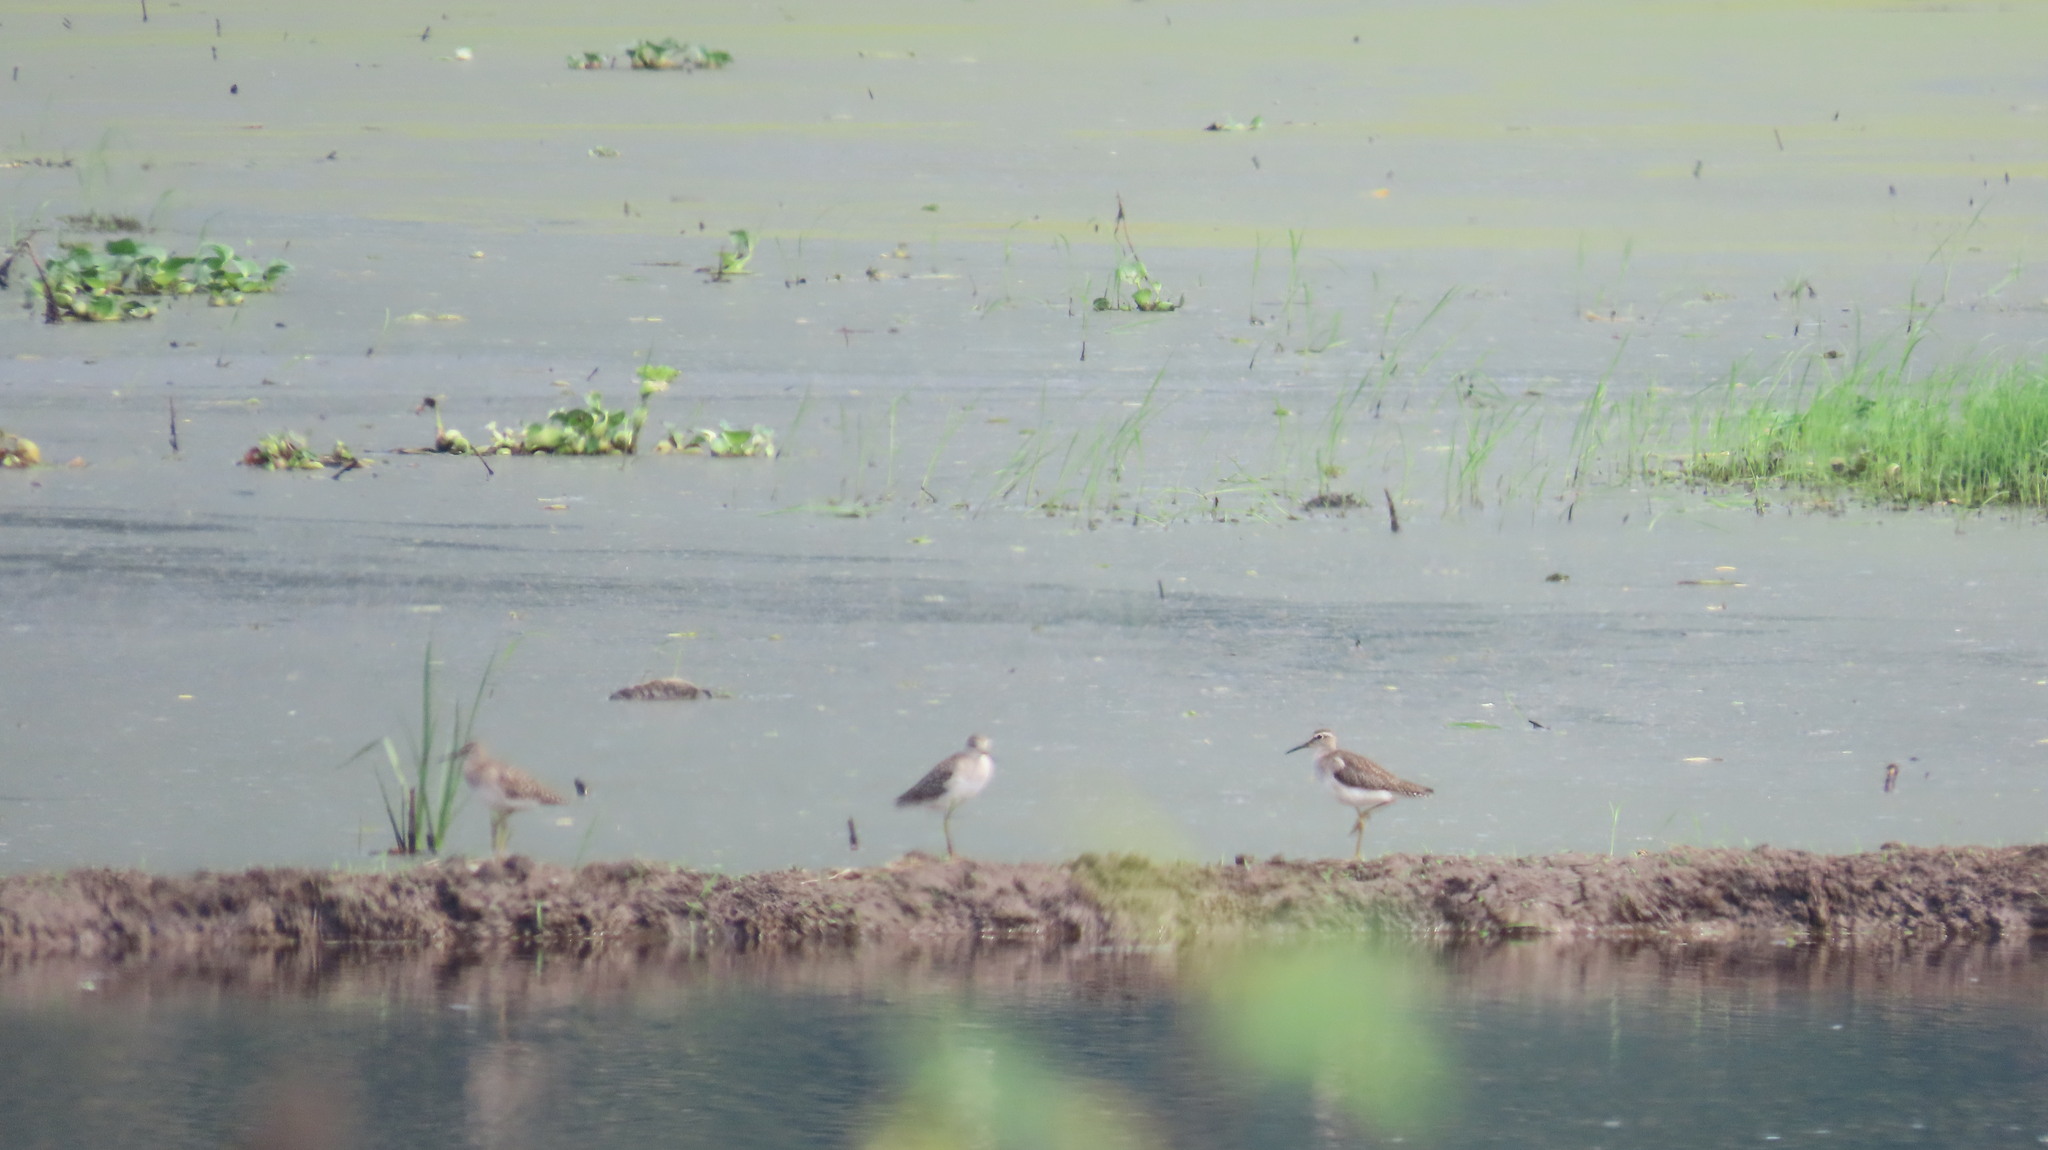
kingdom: Animalia
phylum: Chordata
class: Aves
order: Charadriiformes
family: Scolopacidae
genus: Tringa
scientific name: Tringa glareola
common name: Wood sandpiper
